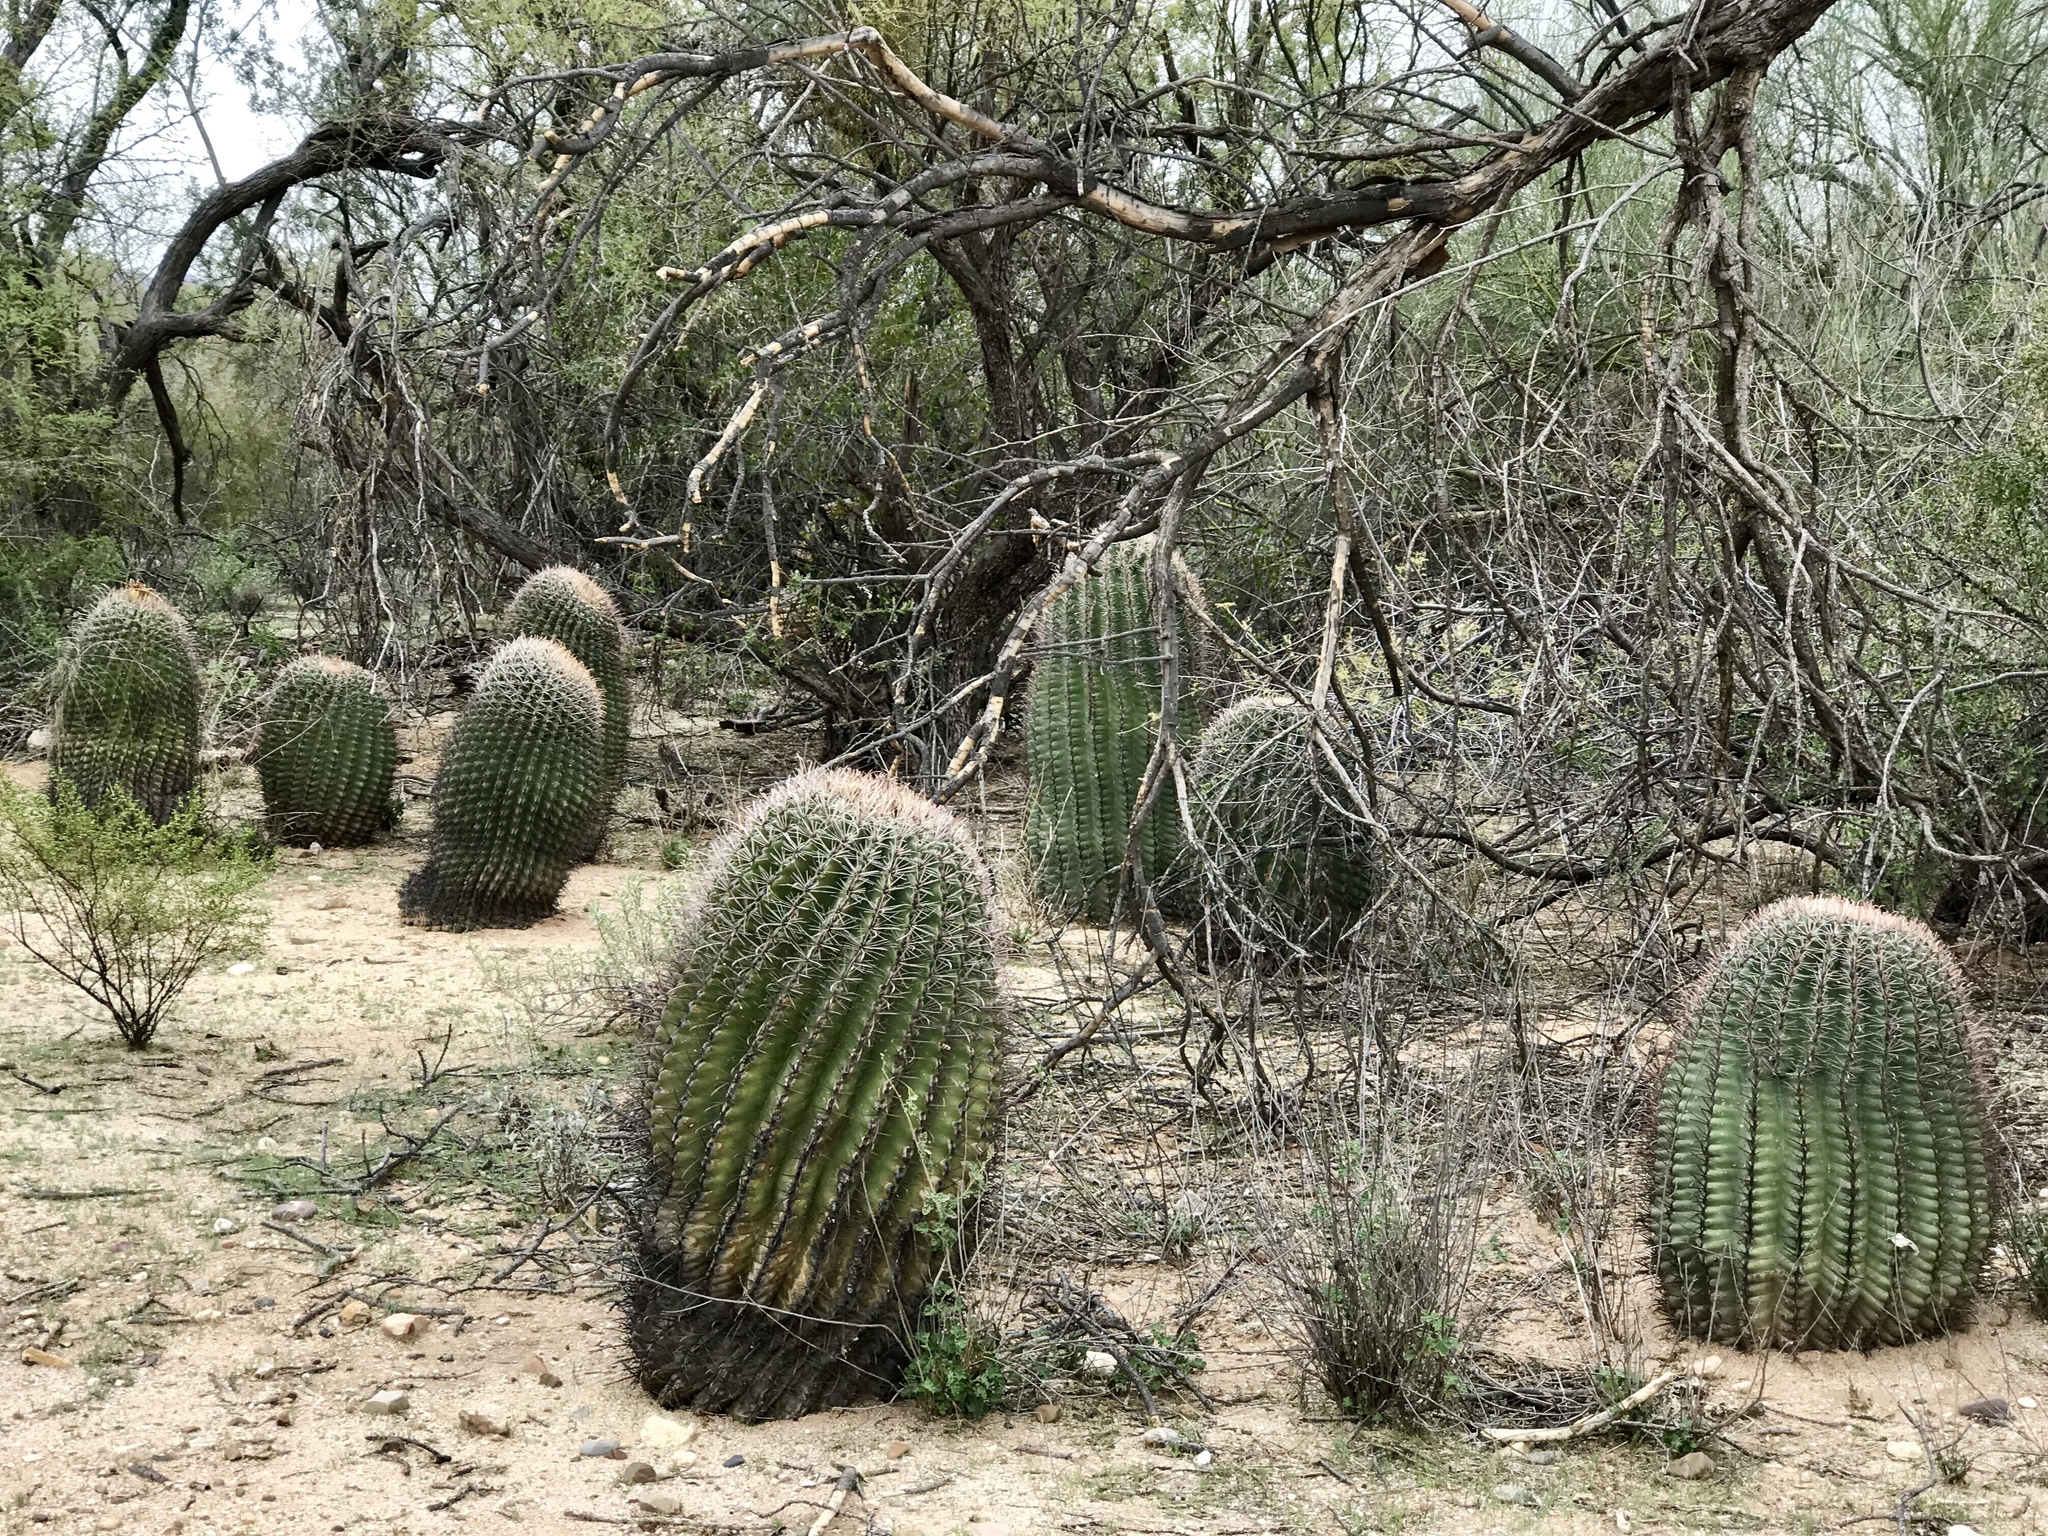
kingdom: Plantae
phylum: Tracheophyta
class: Magnoliopsida
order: Caryophyllales
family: Cactaceae
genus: Ferocactus
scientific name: Ferocactus wislizeni
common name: Candy barrel cactus
